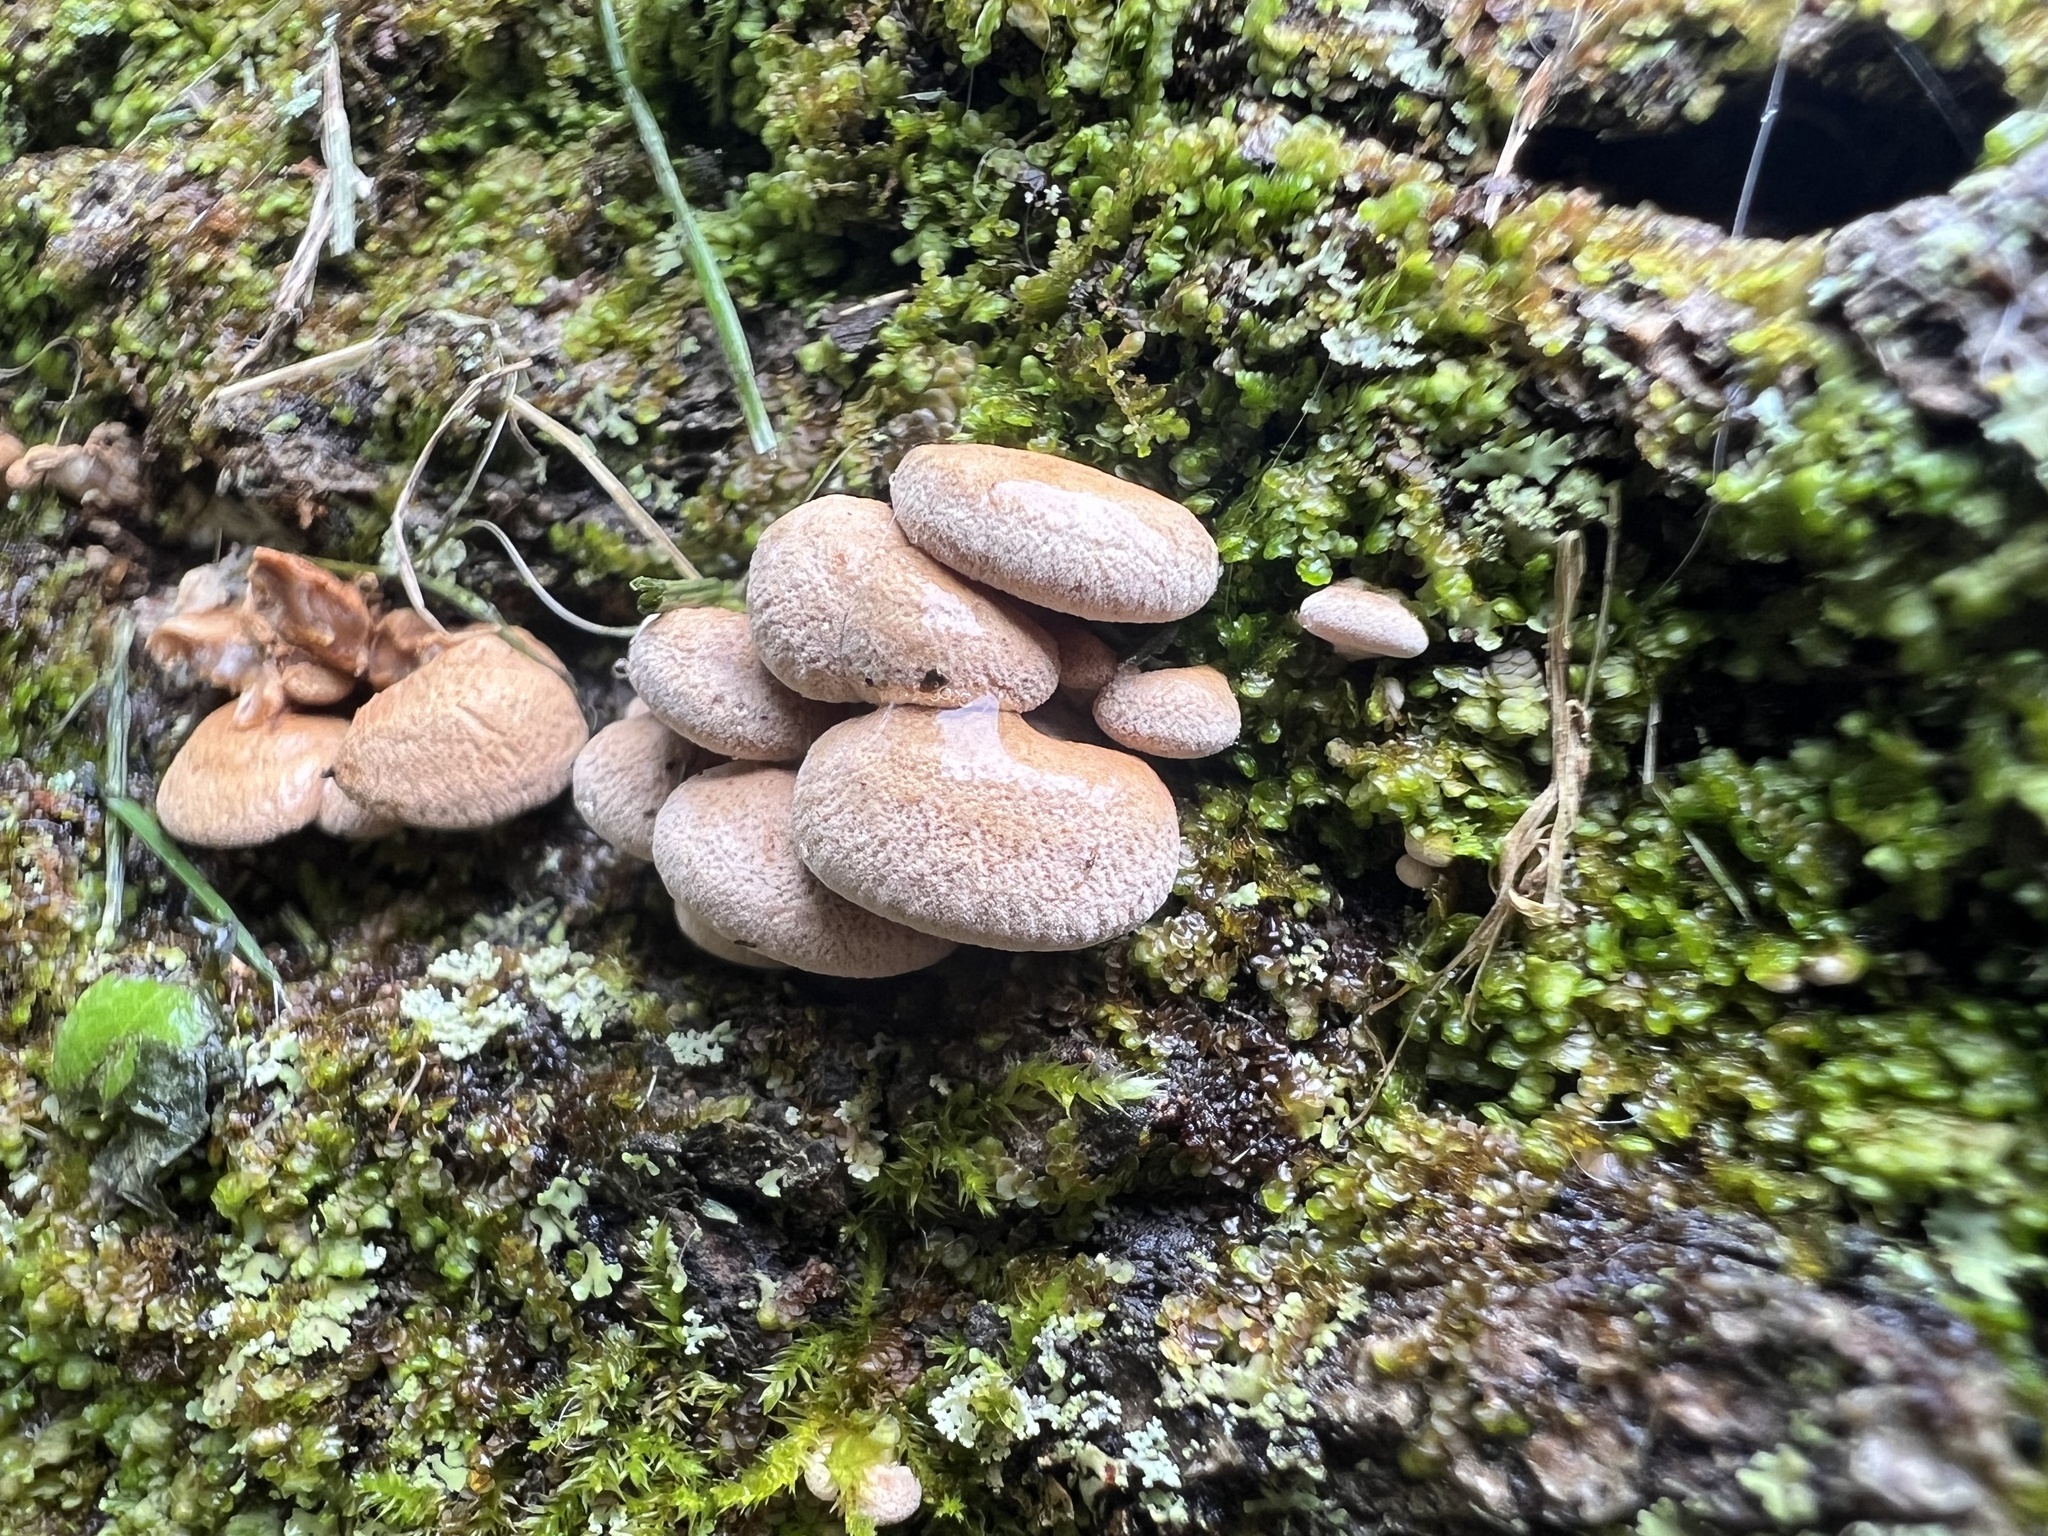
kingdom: Fungi
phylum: Basidiomycota
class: Agaricomycetes
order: Agaricales
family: Mycenaceae
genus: Panellus
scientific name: Panellus stipticus
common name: Bitter oysterling
